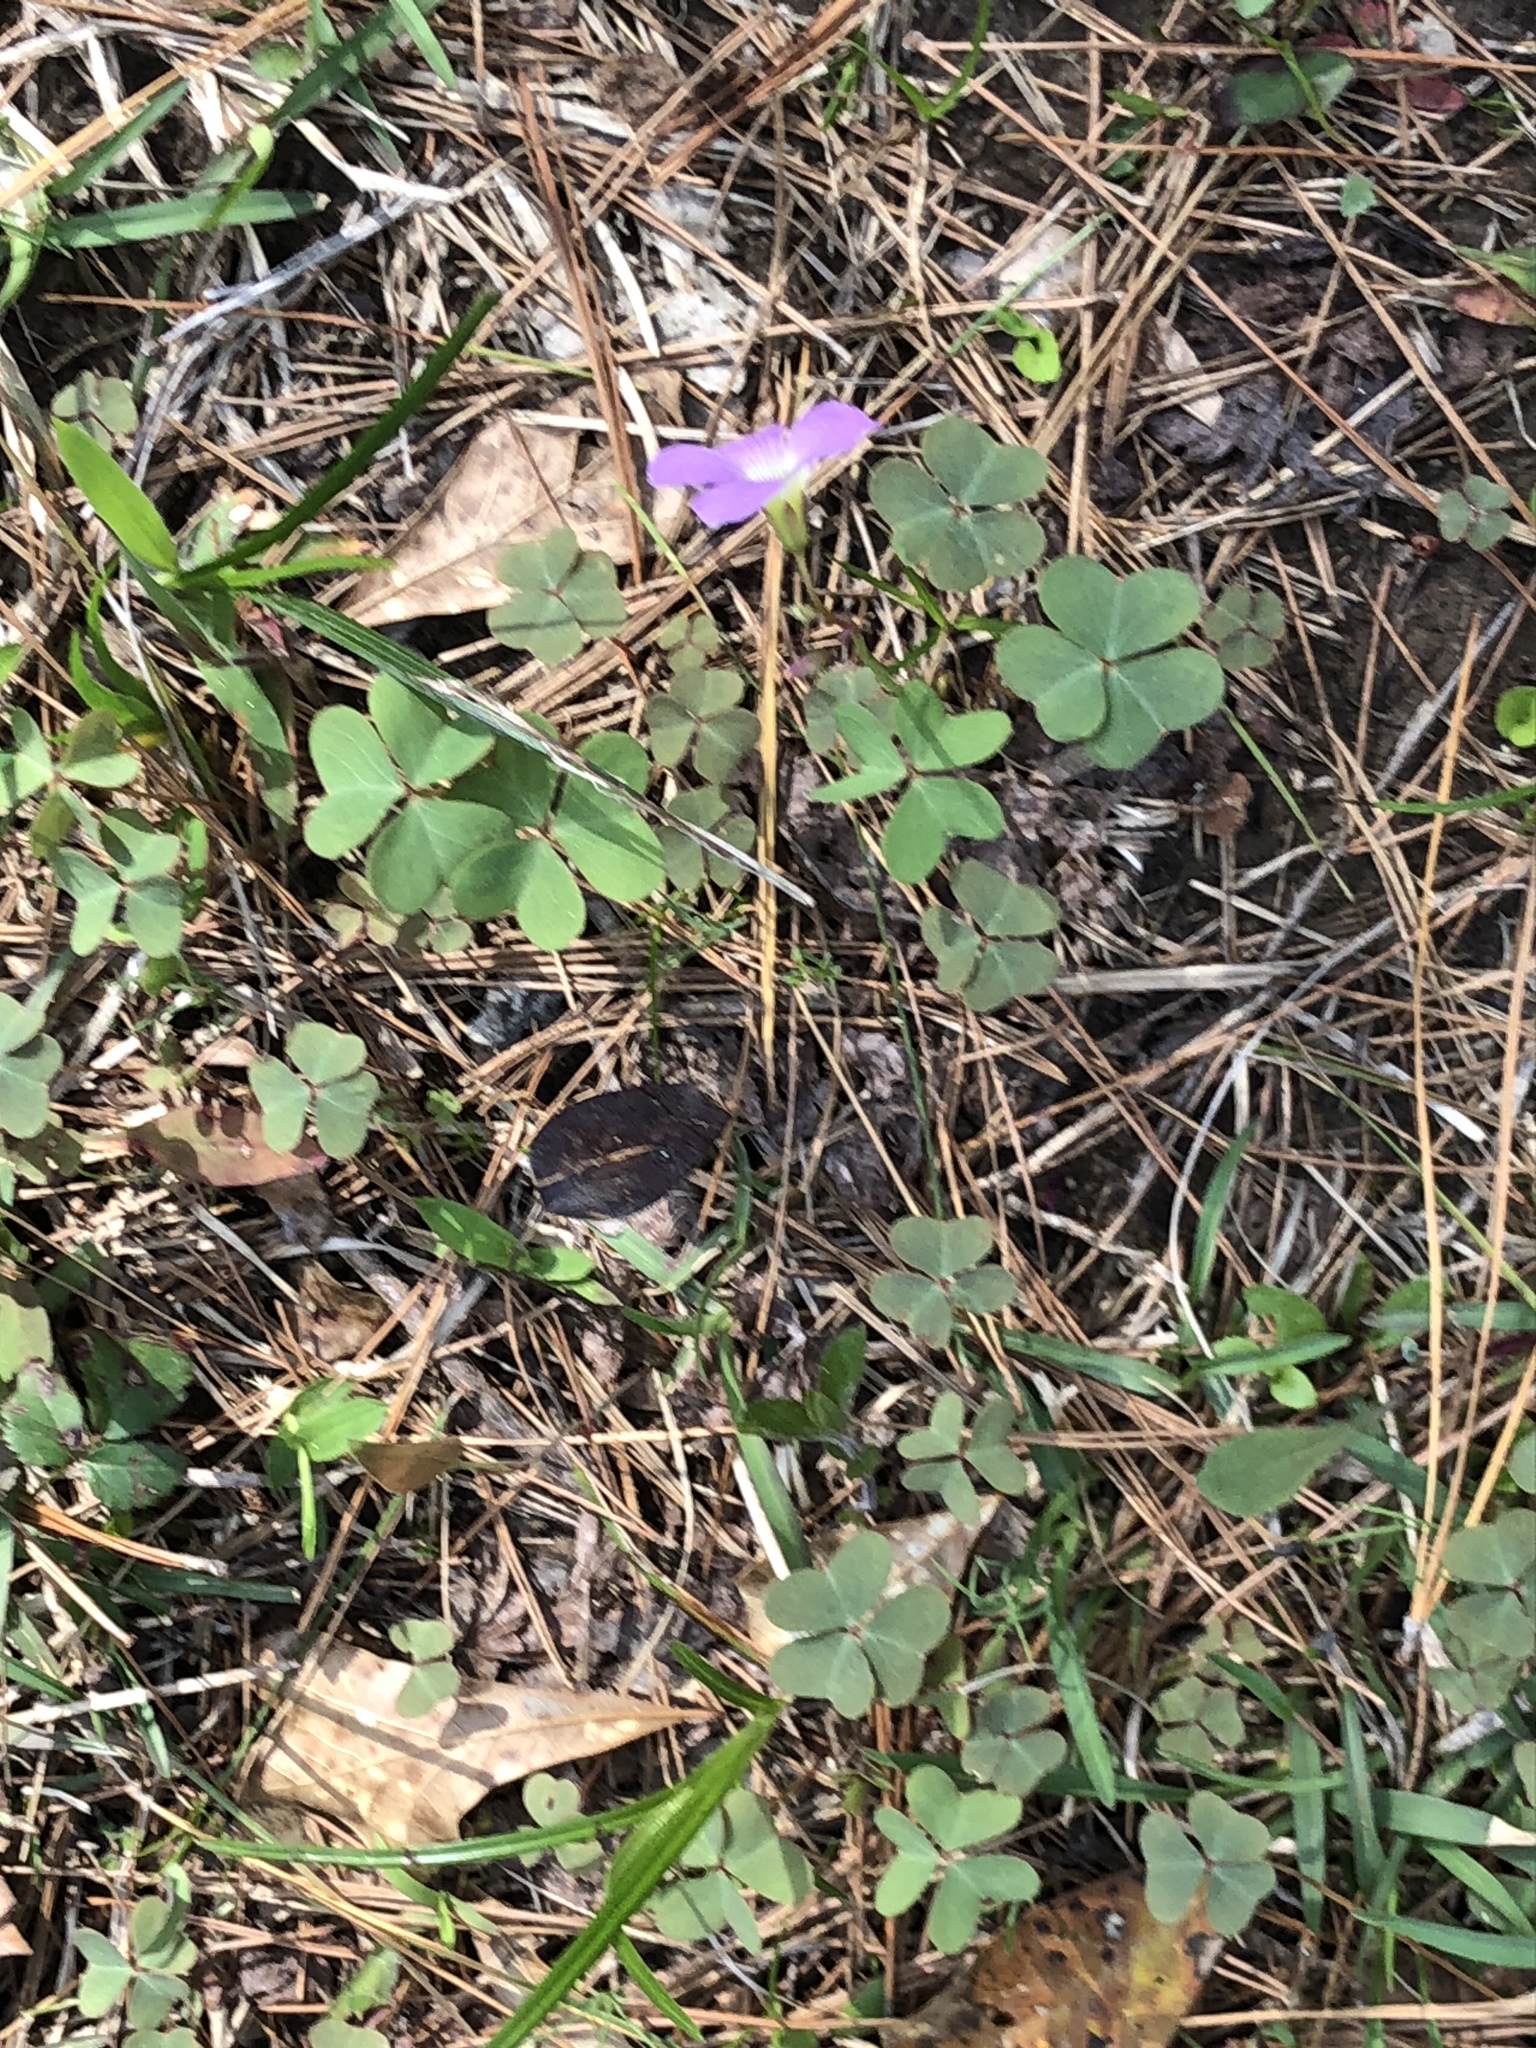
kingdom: Plantae
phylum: Tracheophyta
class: Magnoliopsida
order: Oxalidales
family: Oxalidaceae
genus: Oxalis
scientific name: Oxalis violacea
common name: Violet wood-sorrel
